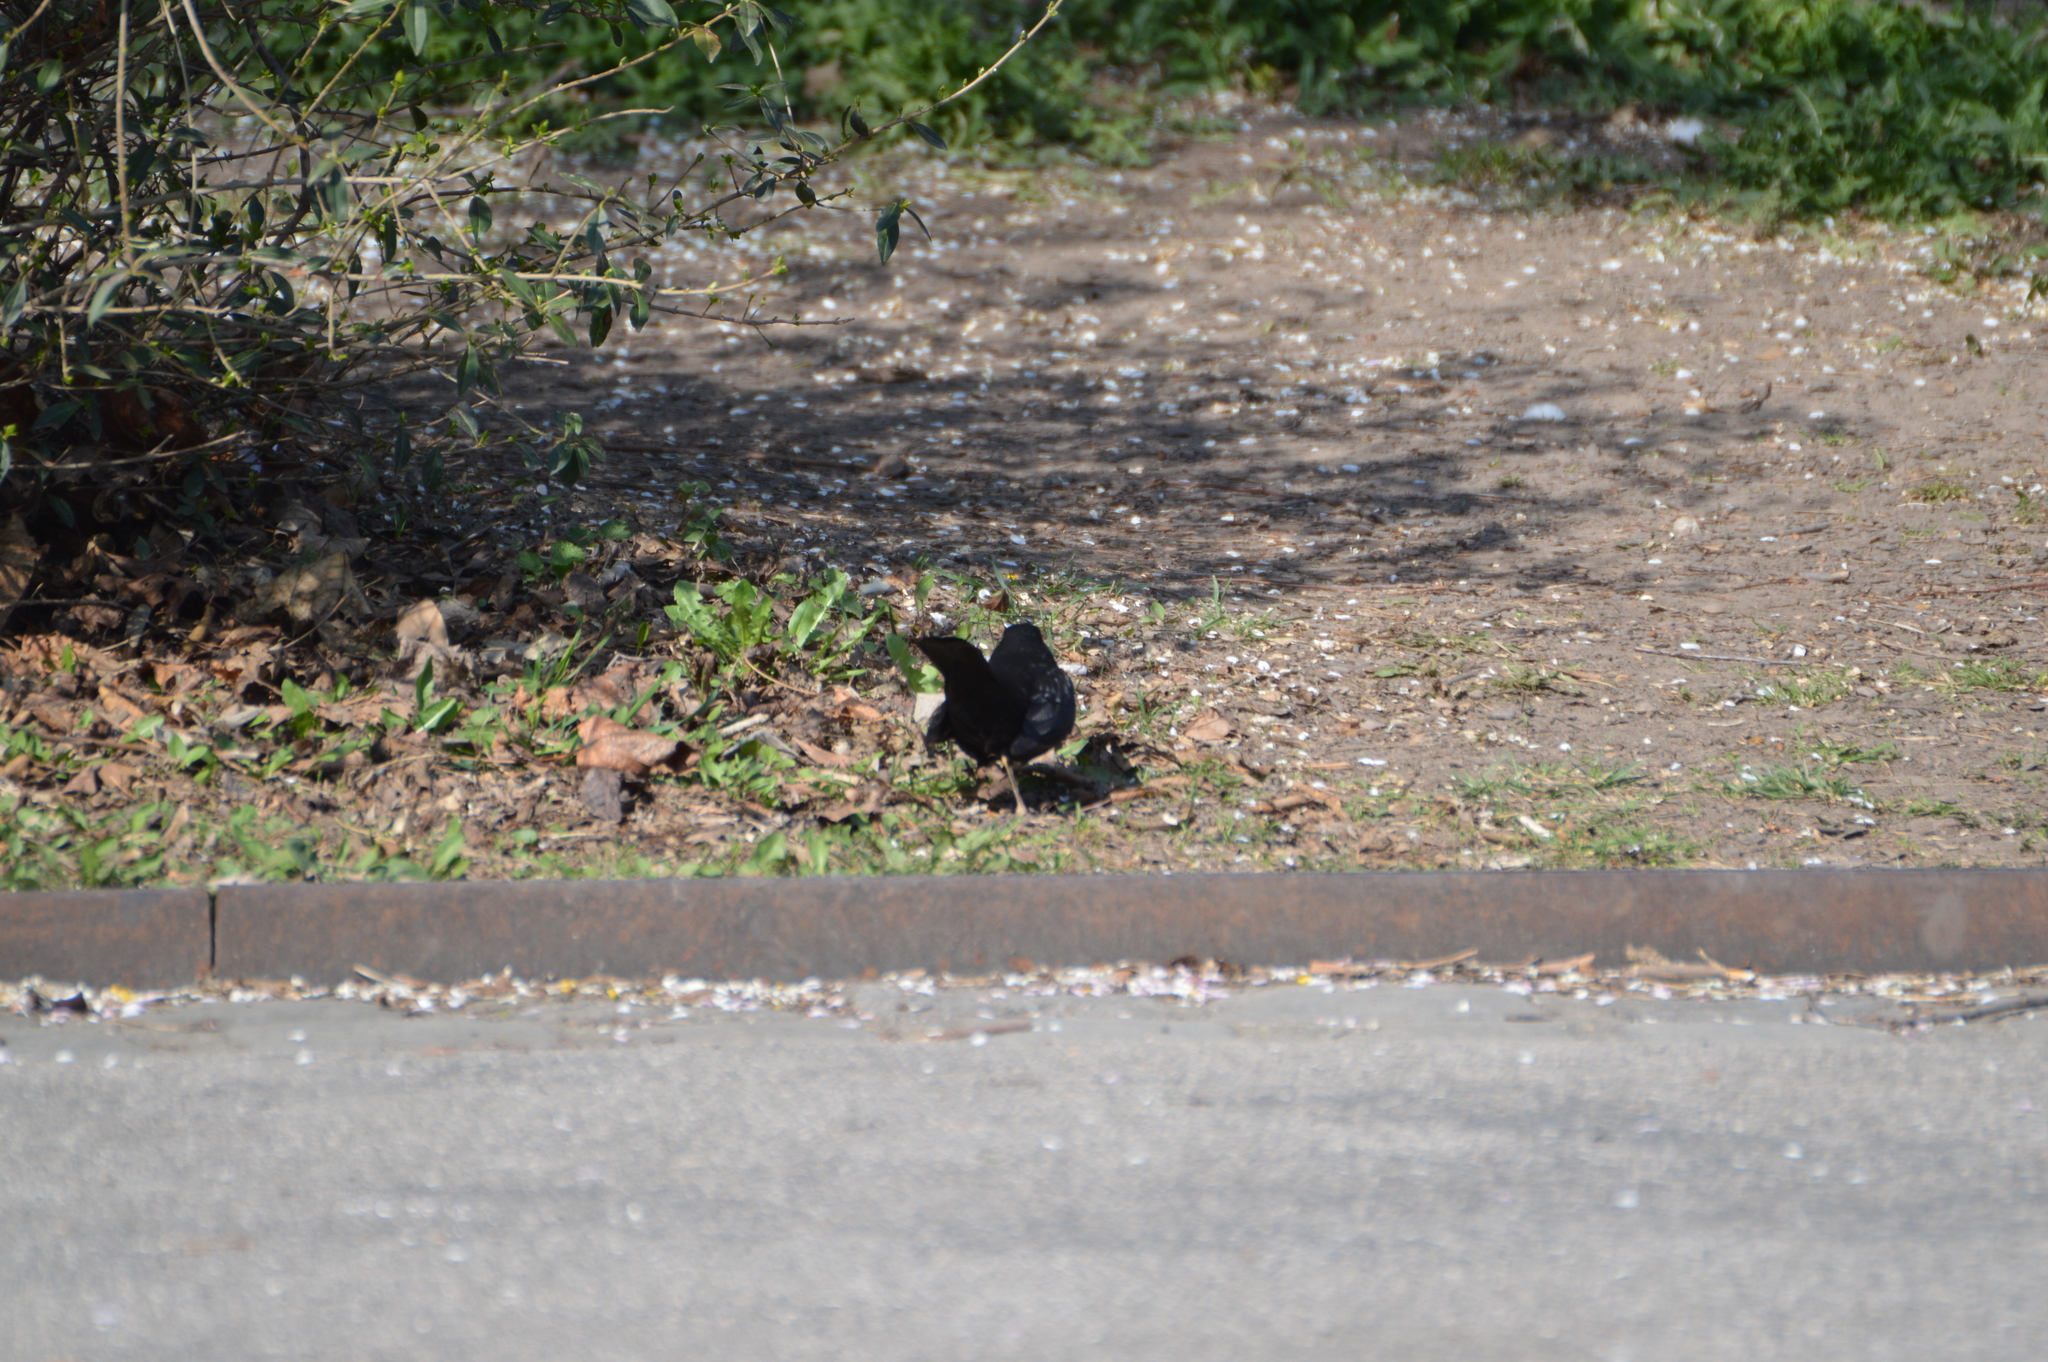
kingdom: Animalia
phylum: Chordata
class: Aves
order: Passeriformes
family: Turdidae
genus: Turdus
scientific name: Turdus merula
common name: Common blackbird
